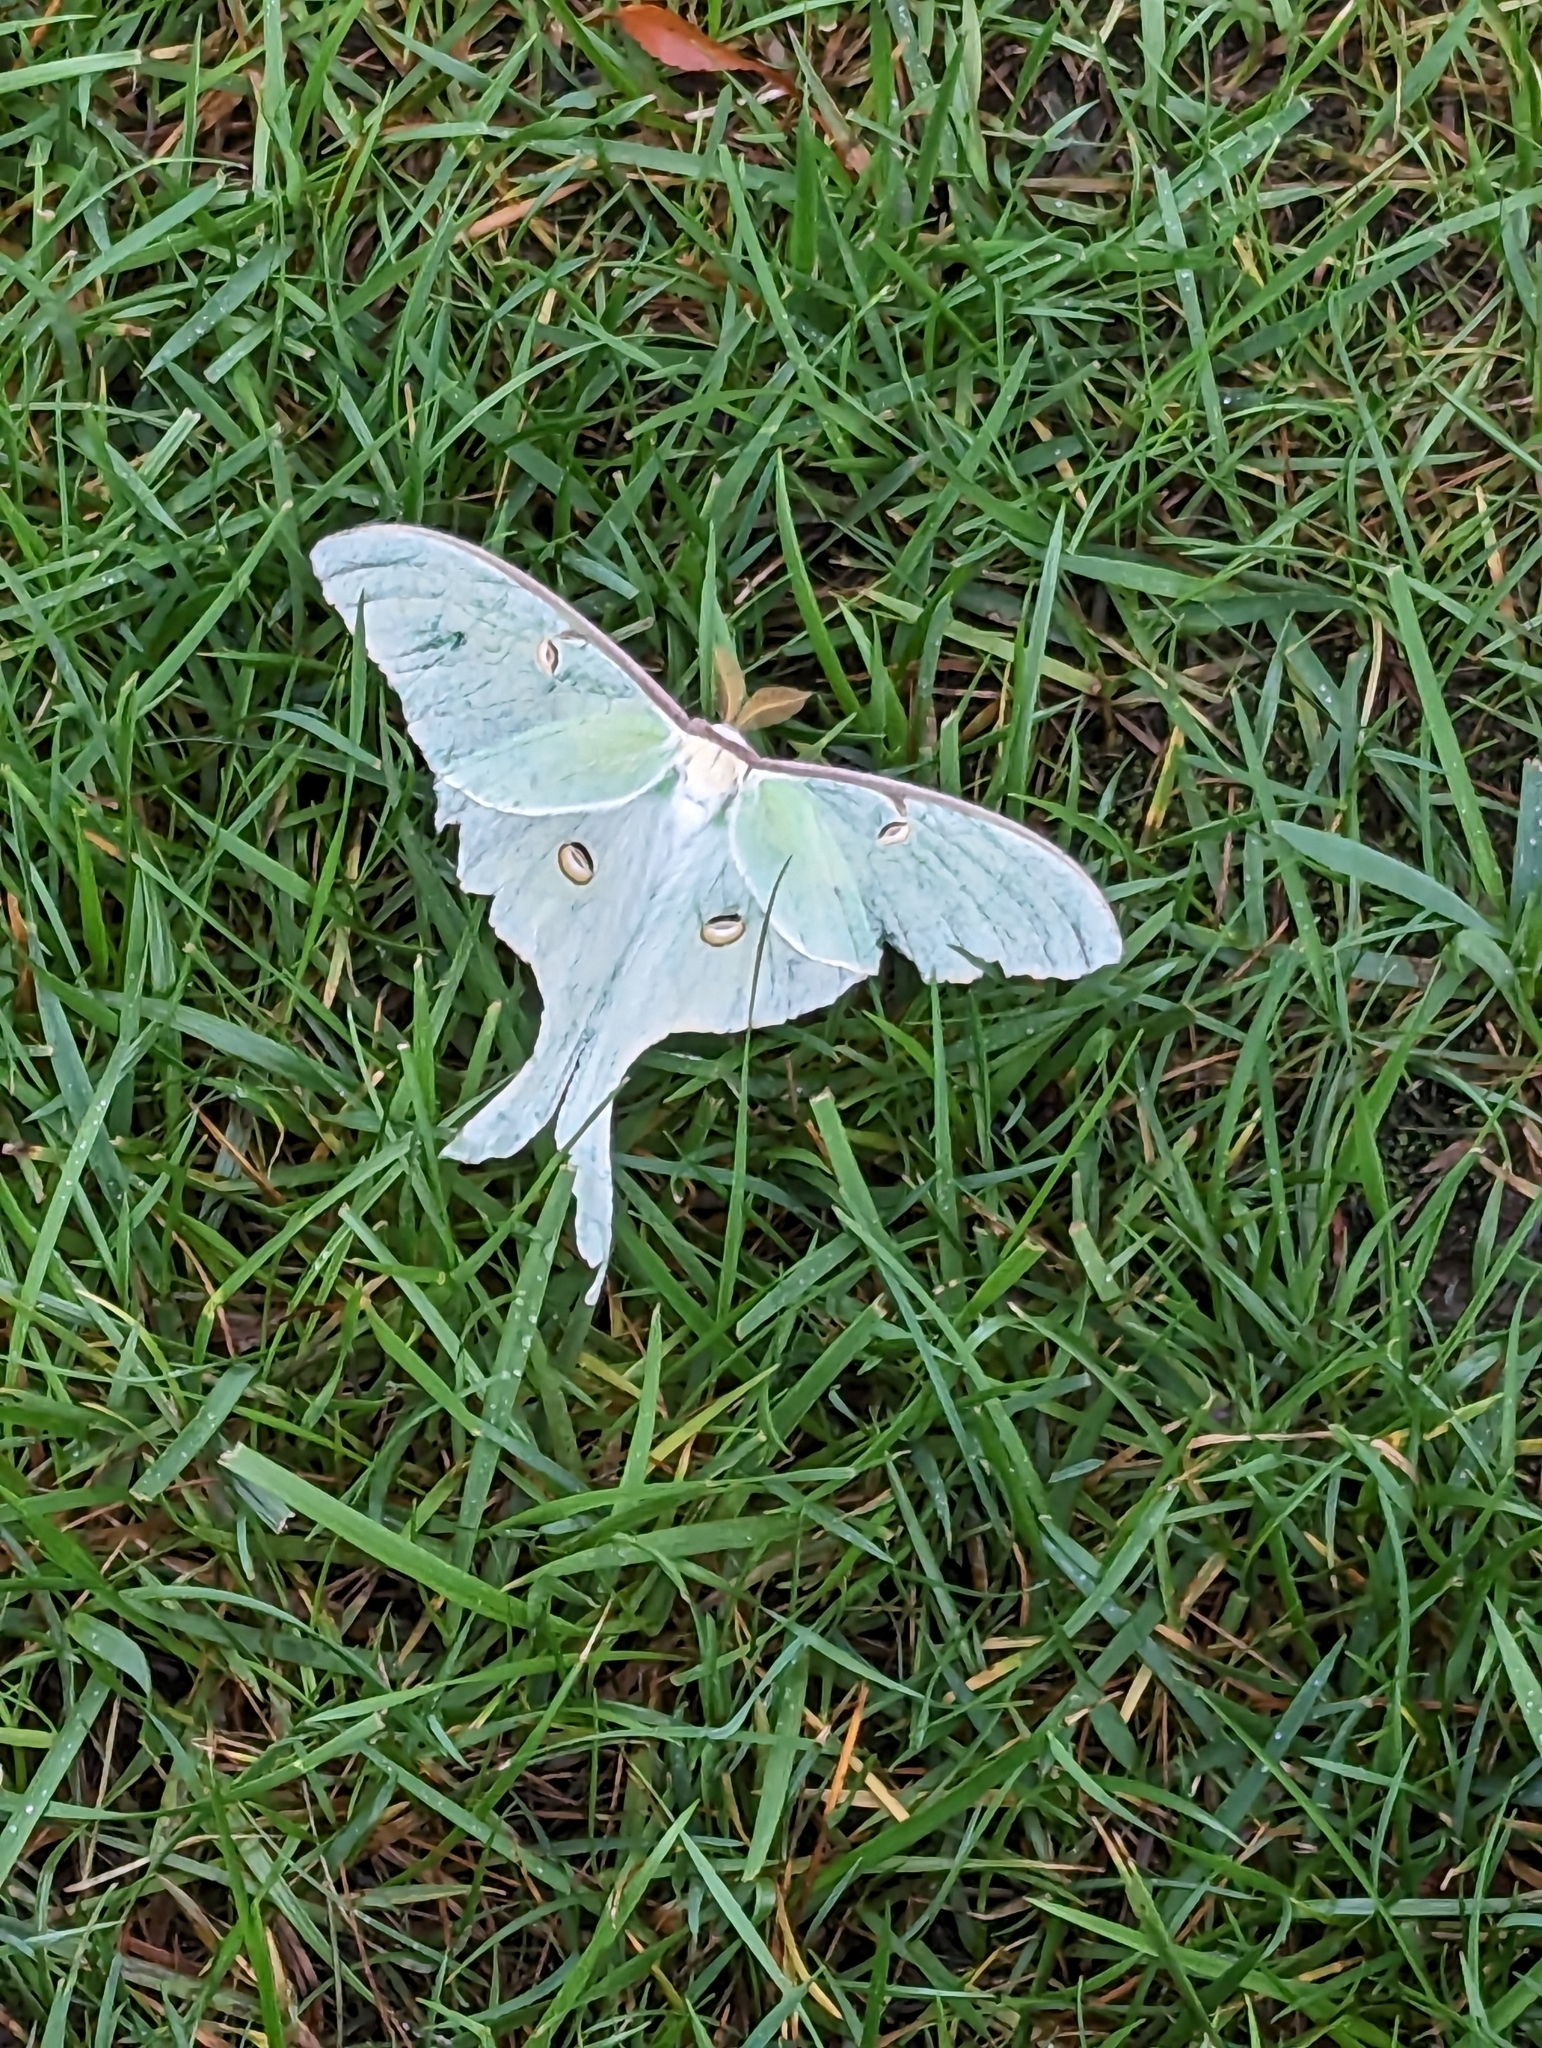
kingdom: Animalia
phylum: Arthropoda
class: Insecta
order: Lepidoptera
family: Saturniidae
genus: Actias
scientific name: Actias luna
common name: Luna moth
